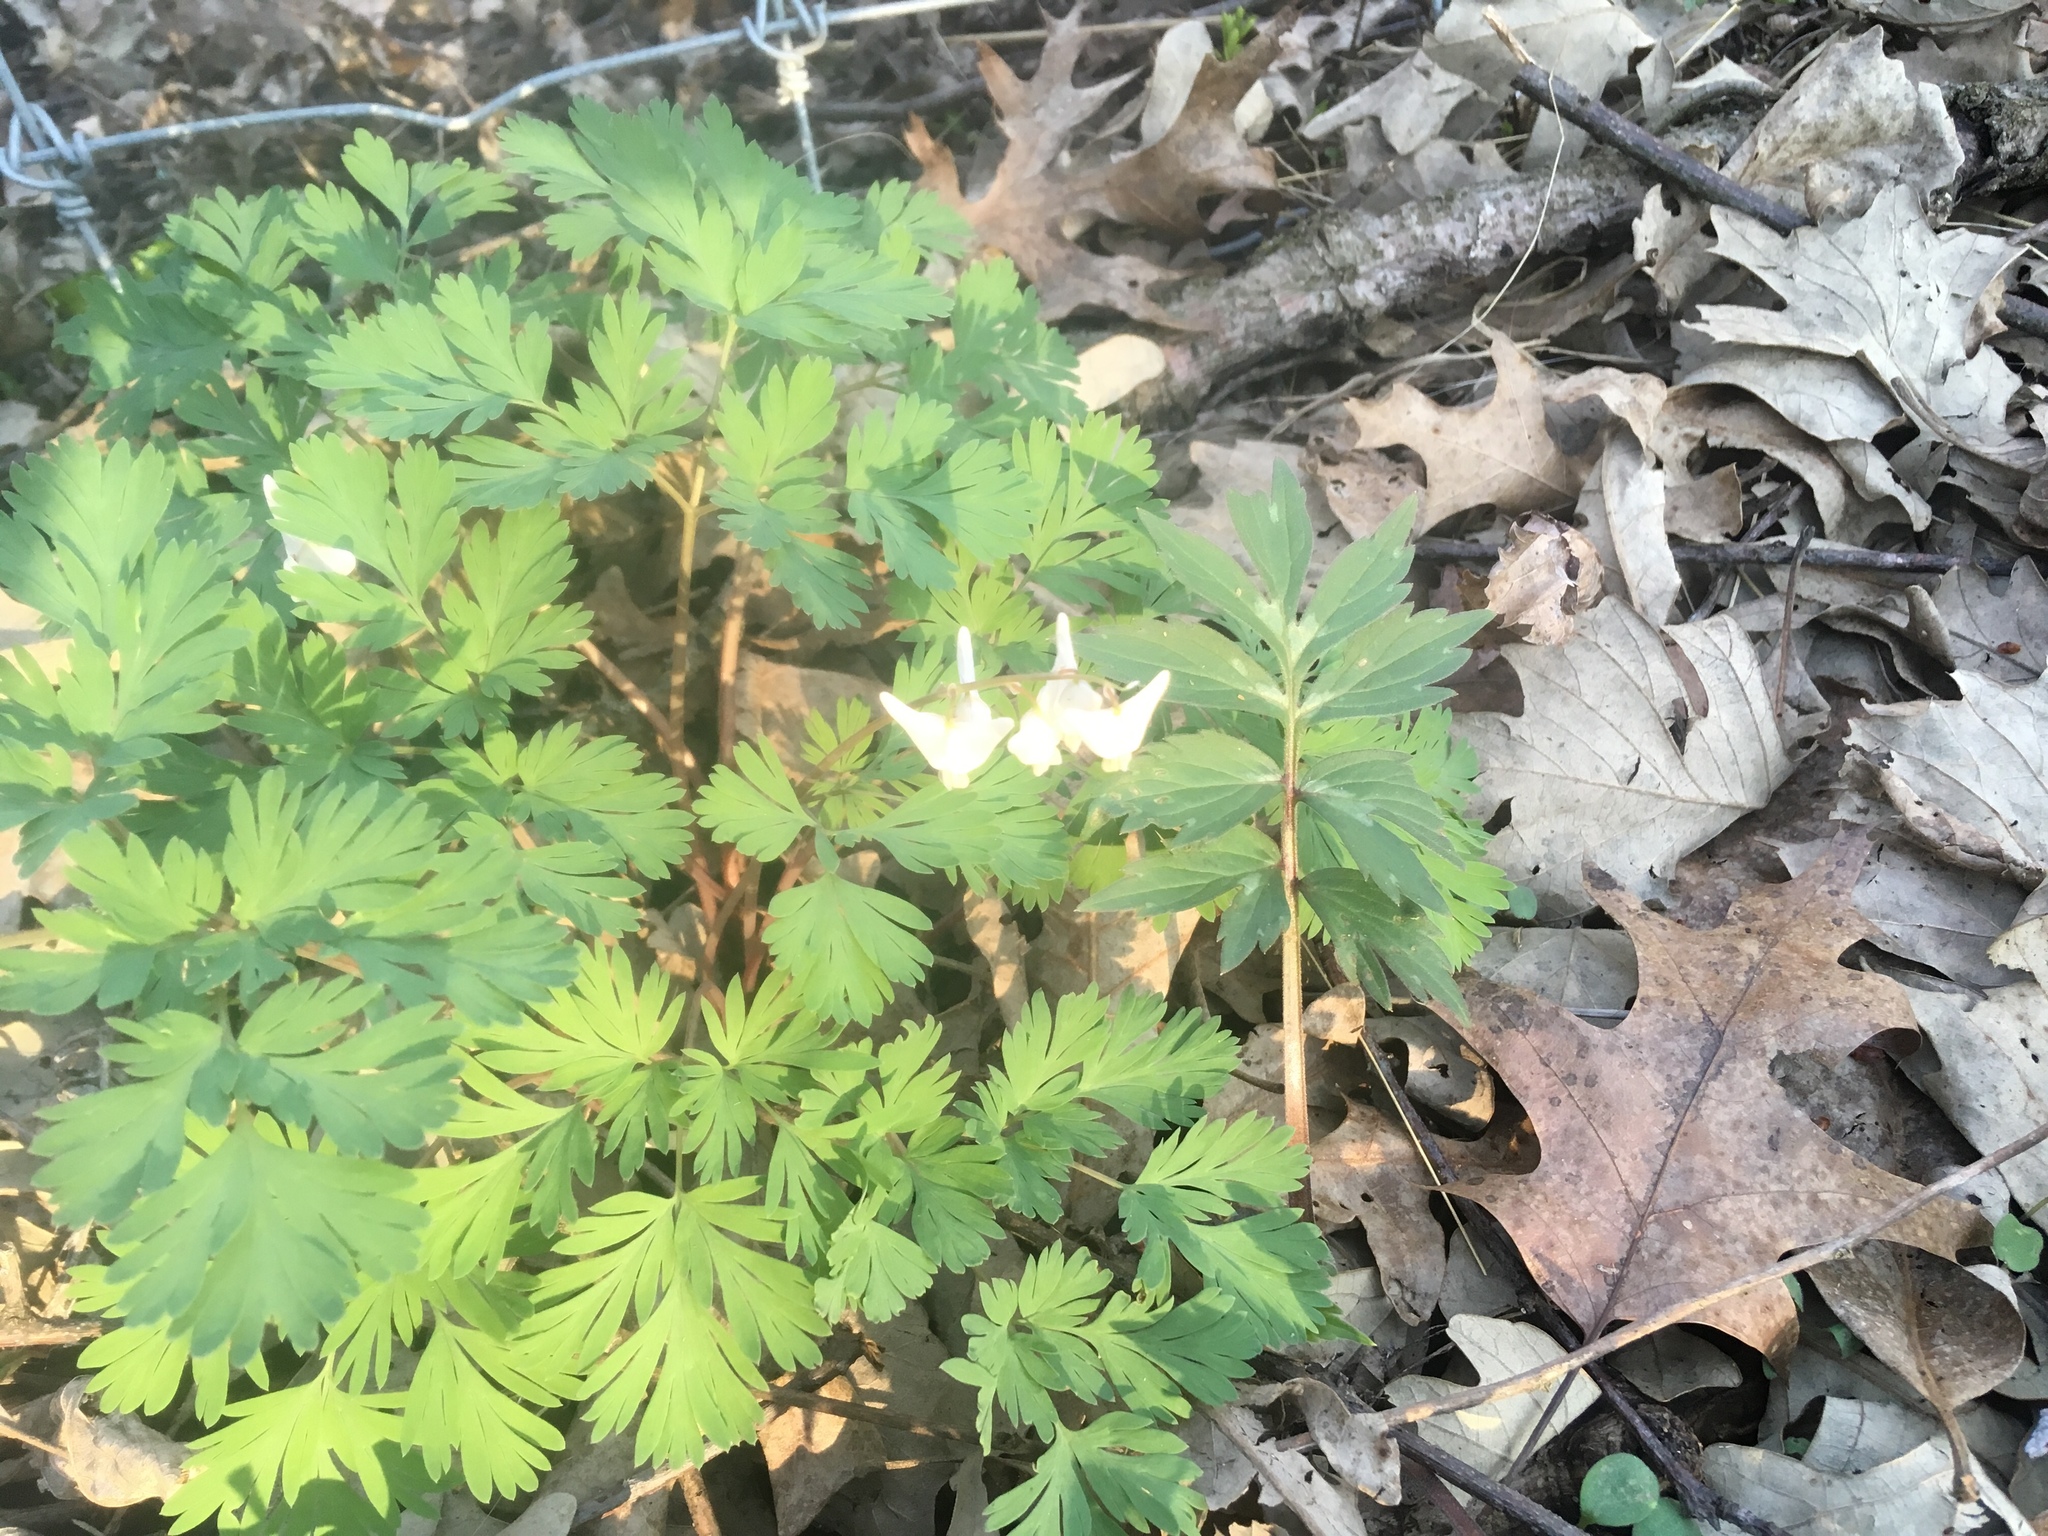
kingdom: Plantae
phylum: Tracheophyta
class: Magnoliopsida
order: Ranunculales
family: Papaveraceae
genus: Dicentra
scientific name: Dicentra cucullaria
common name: Dutchman's breeches
